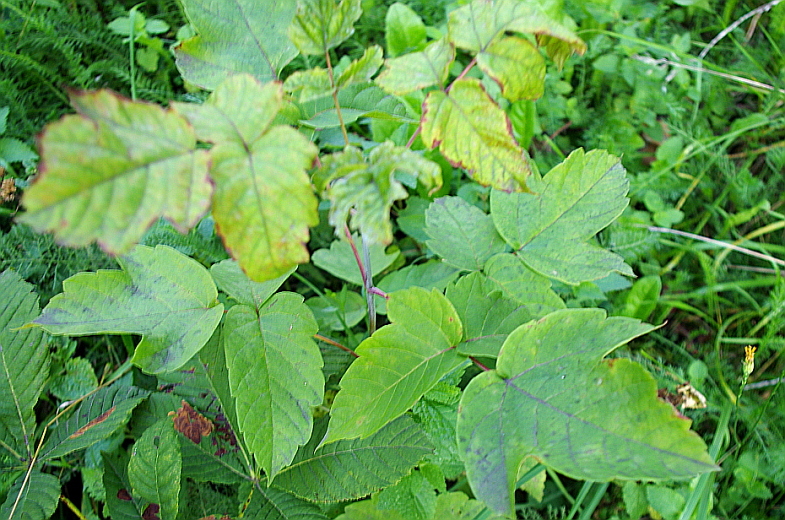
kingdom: Plantae
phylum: Tracheophyta
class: Magnoliopsida
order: Sapindales
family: Sapindaceae
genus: Acer
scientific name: Acer negundo
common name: Ashleaf maple
